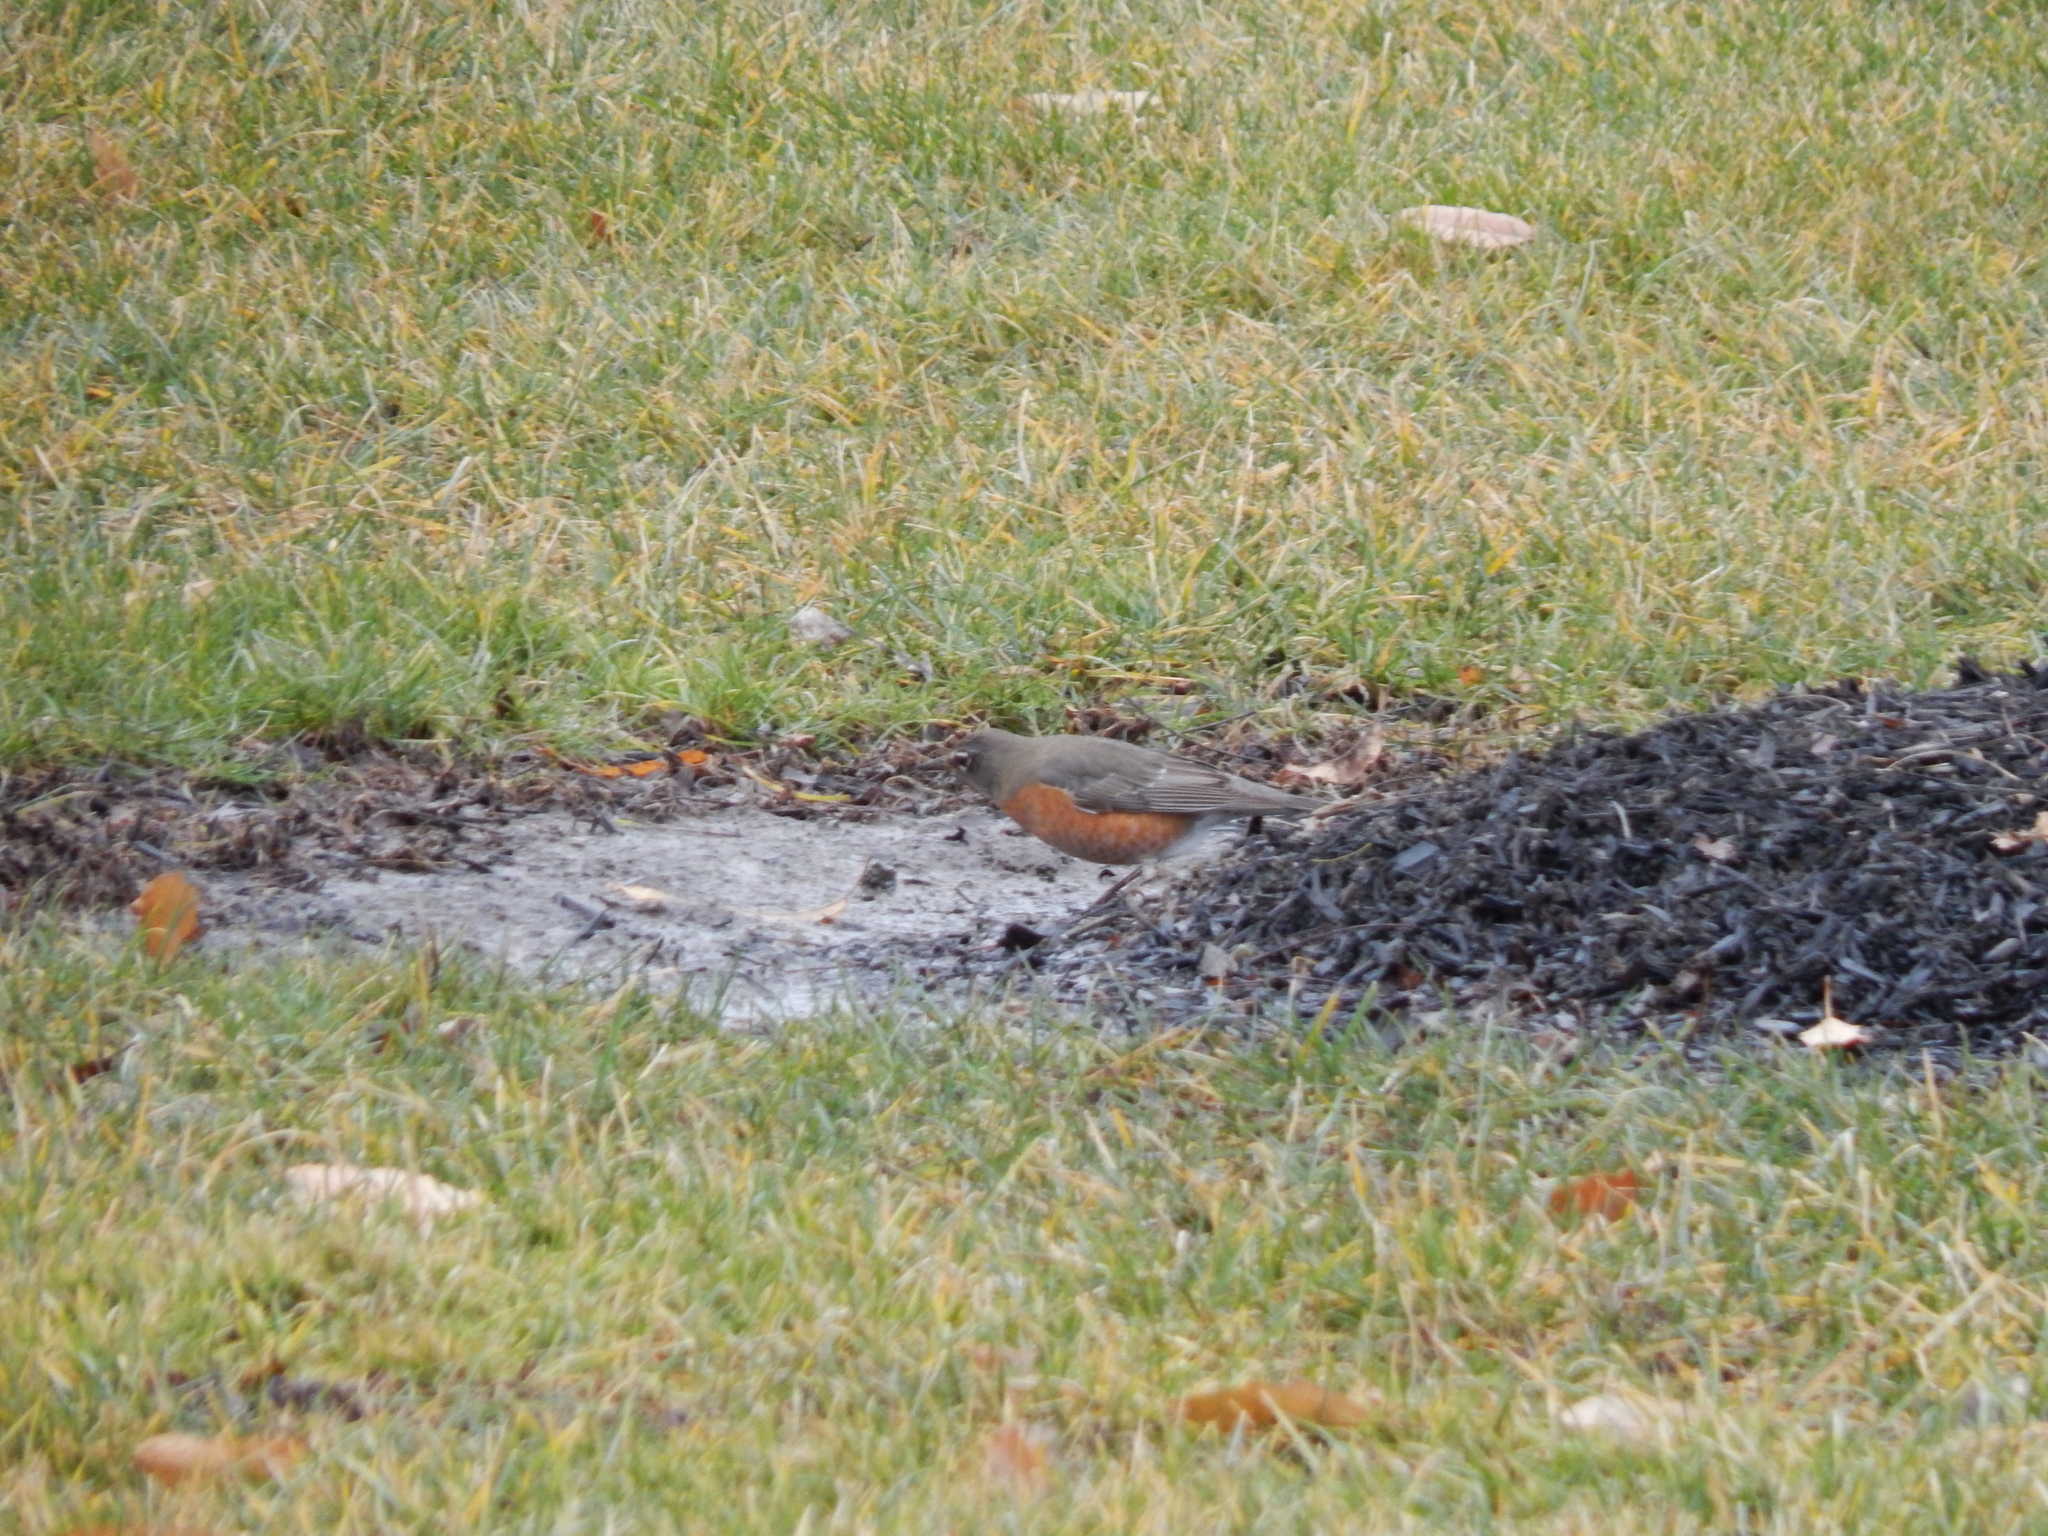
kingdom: Animalia
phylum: Chordata
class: Aves
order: Passeriformes
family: Turdidae
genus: Turdus
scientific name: Turdus migratorius
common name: American robin
